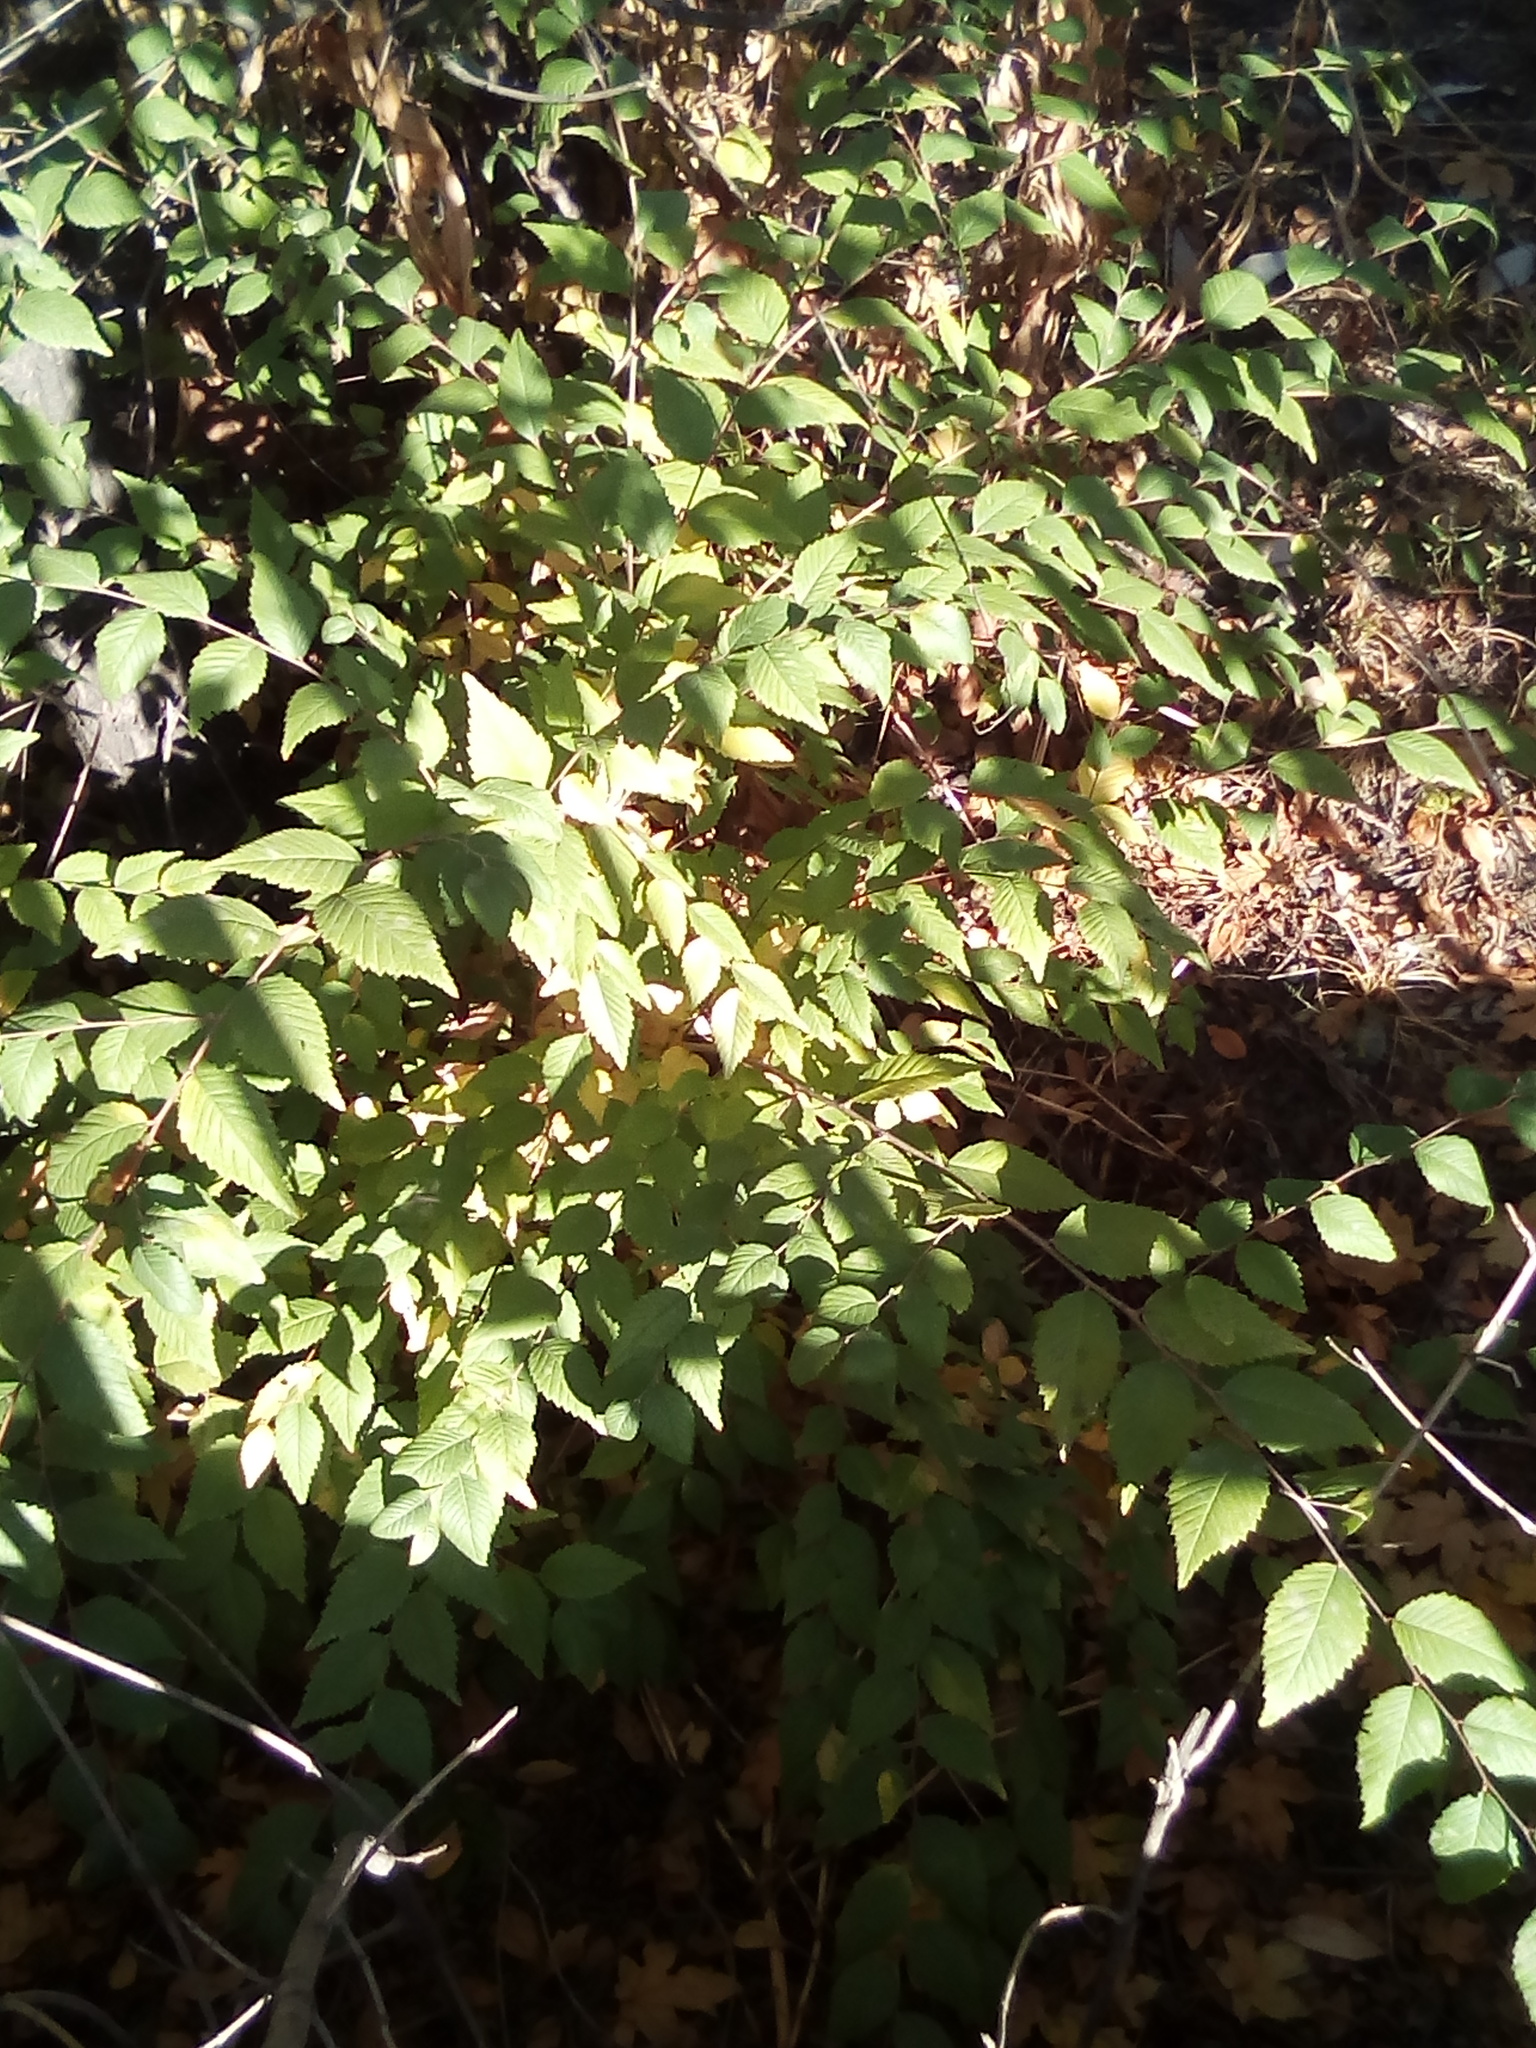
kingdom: Plantae
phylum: Tracheophyta
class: Magnoliopsida
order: Rosales
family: Ulmaceae
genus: Ulmus
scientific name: Ulmus pumila
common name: Siberian elm
